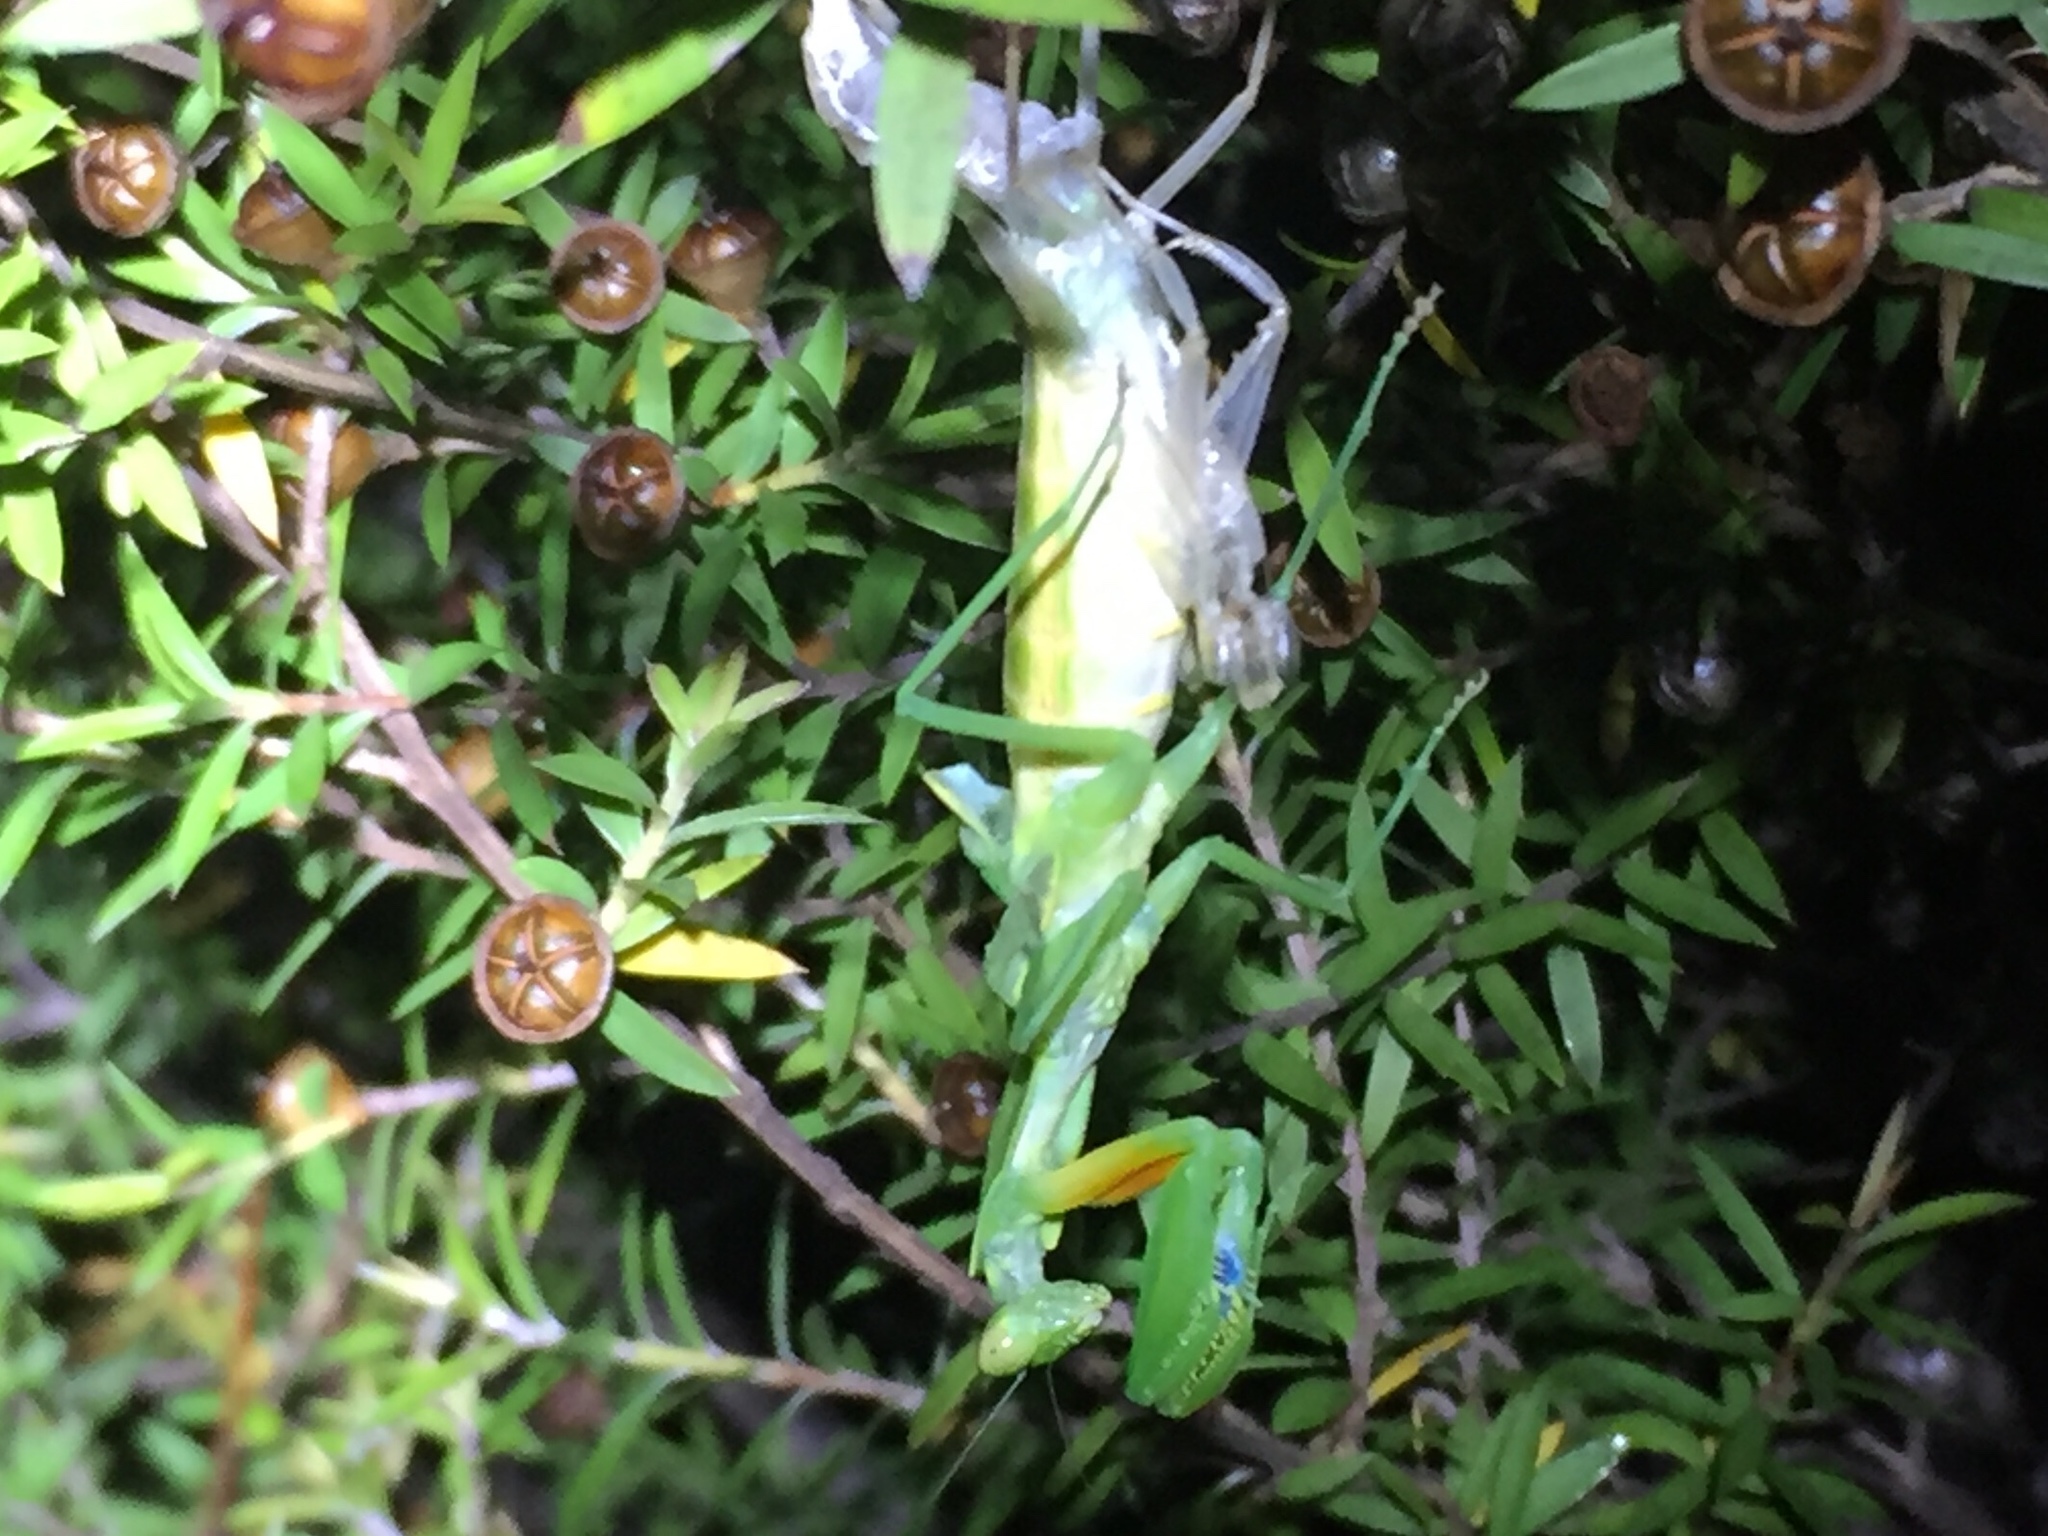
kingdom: Animalia
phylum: Arthropoda
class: Insecta
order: Mantodea
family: Mantidae
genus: Orthodera
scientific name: Orthodera novaezealandiae
